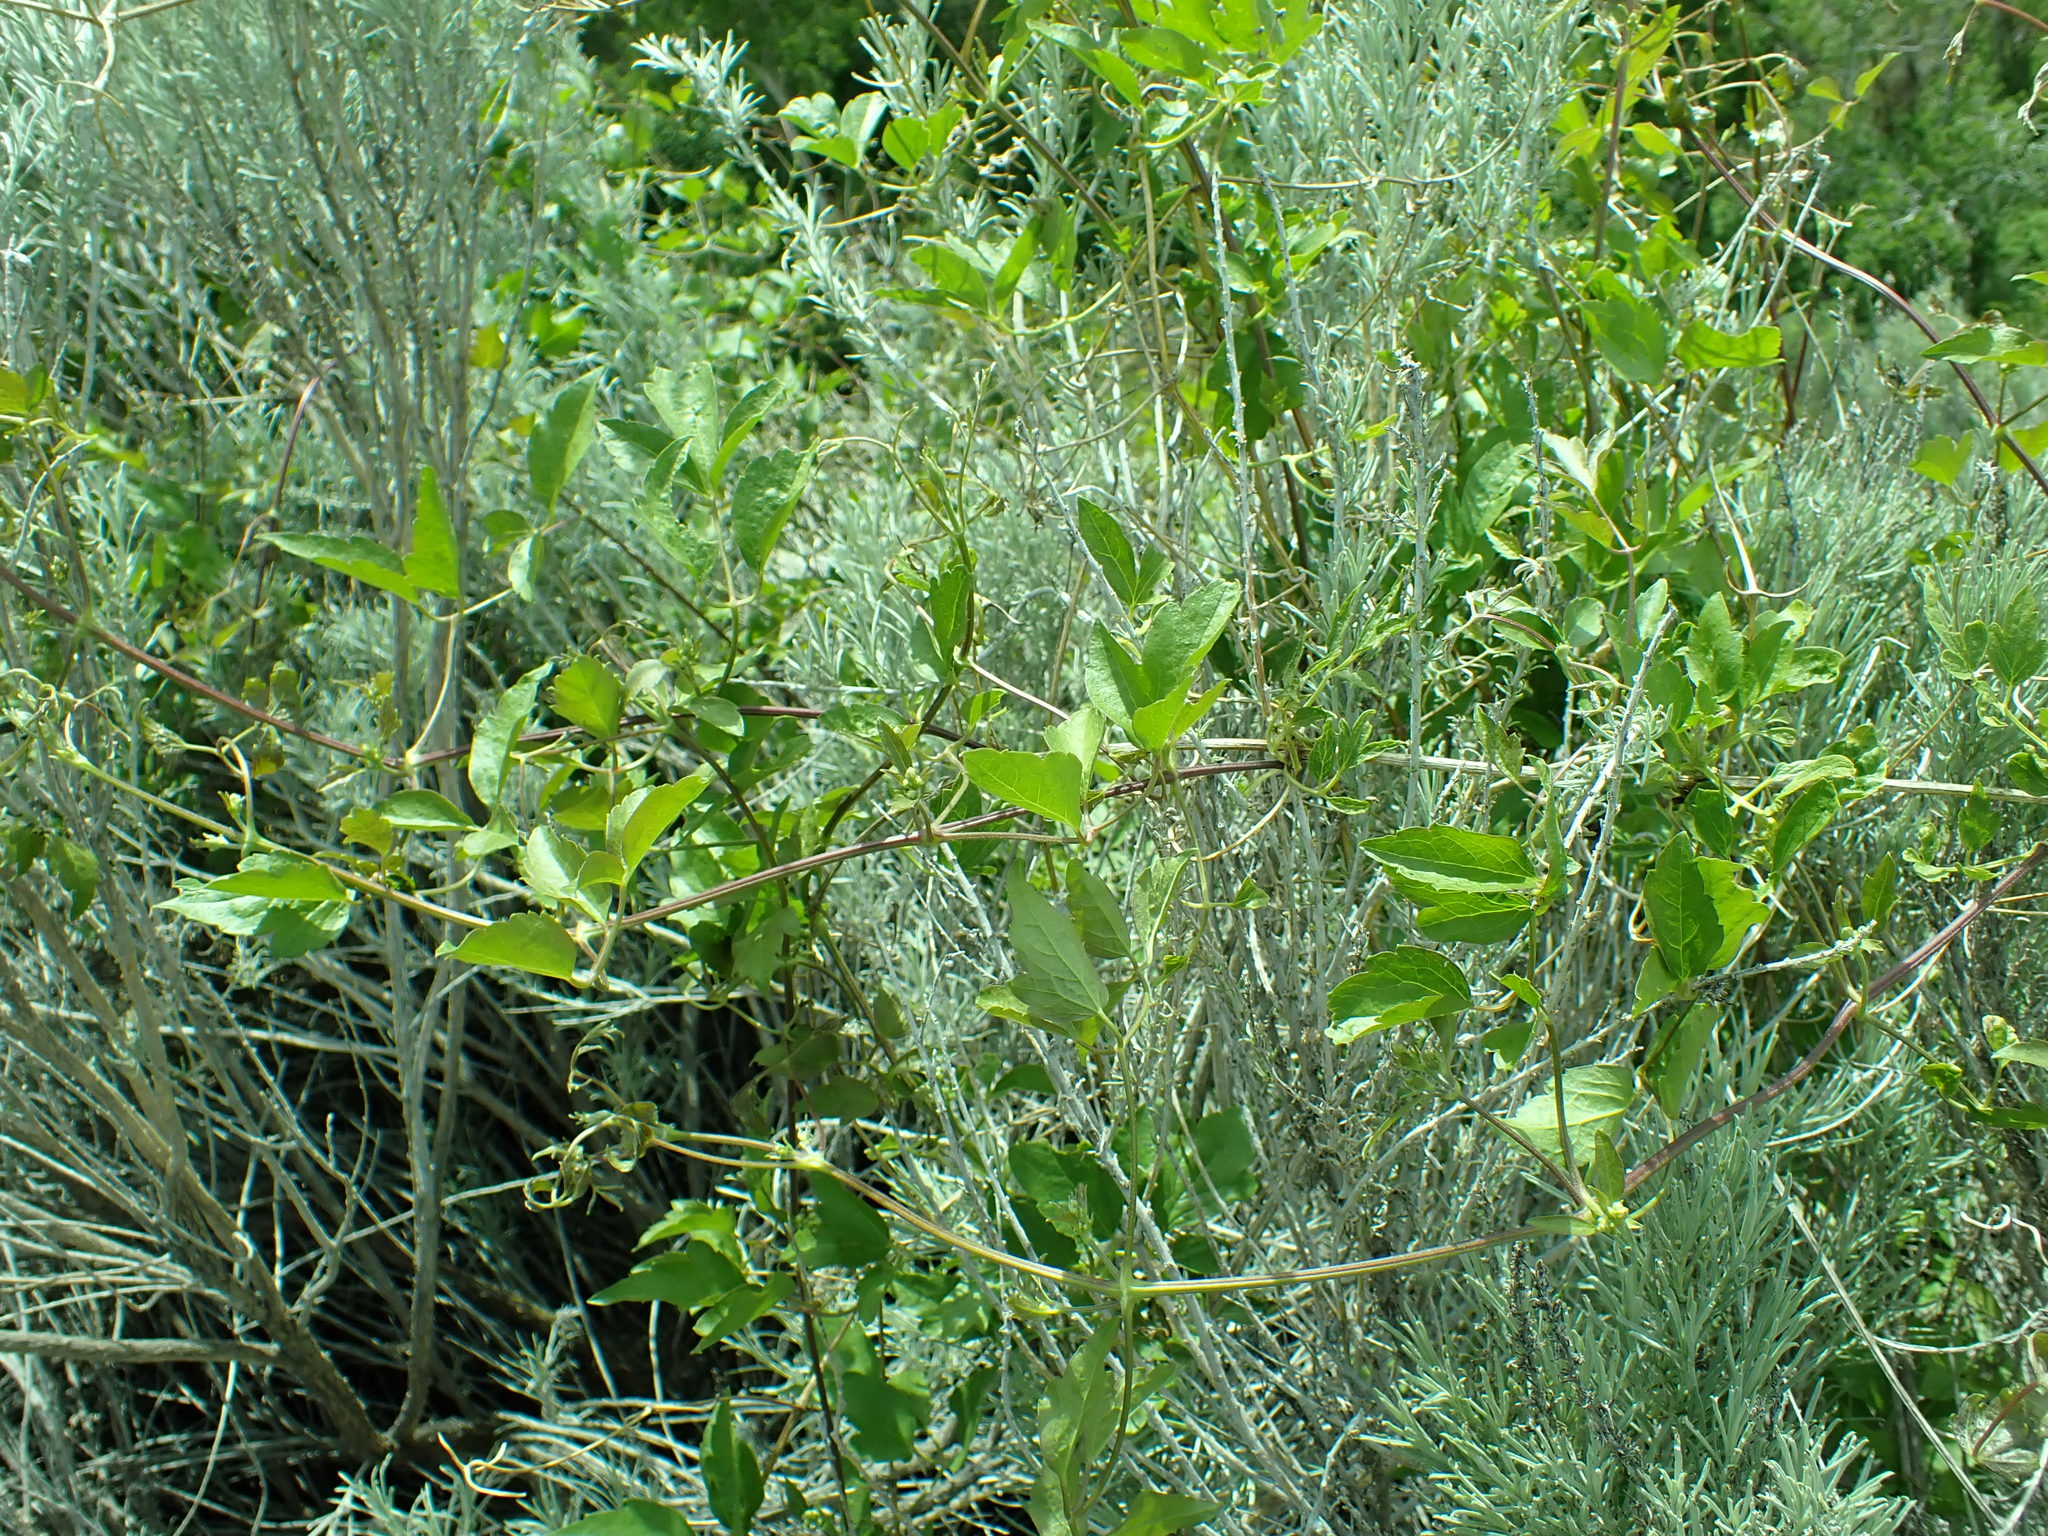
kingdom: Plantae
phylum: Tracheophyta
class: Magnoliopsida
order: Ranunculales
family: Ranunculaceae
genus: Clematis
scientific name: Clematis ligusticifolia
